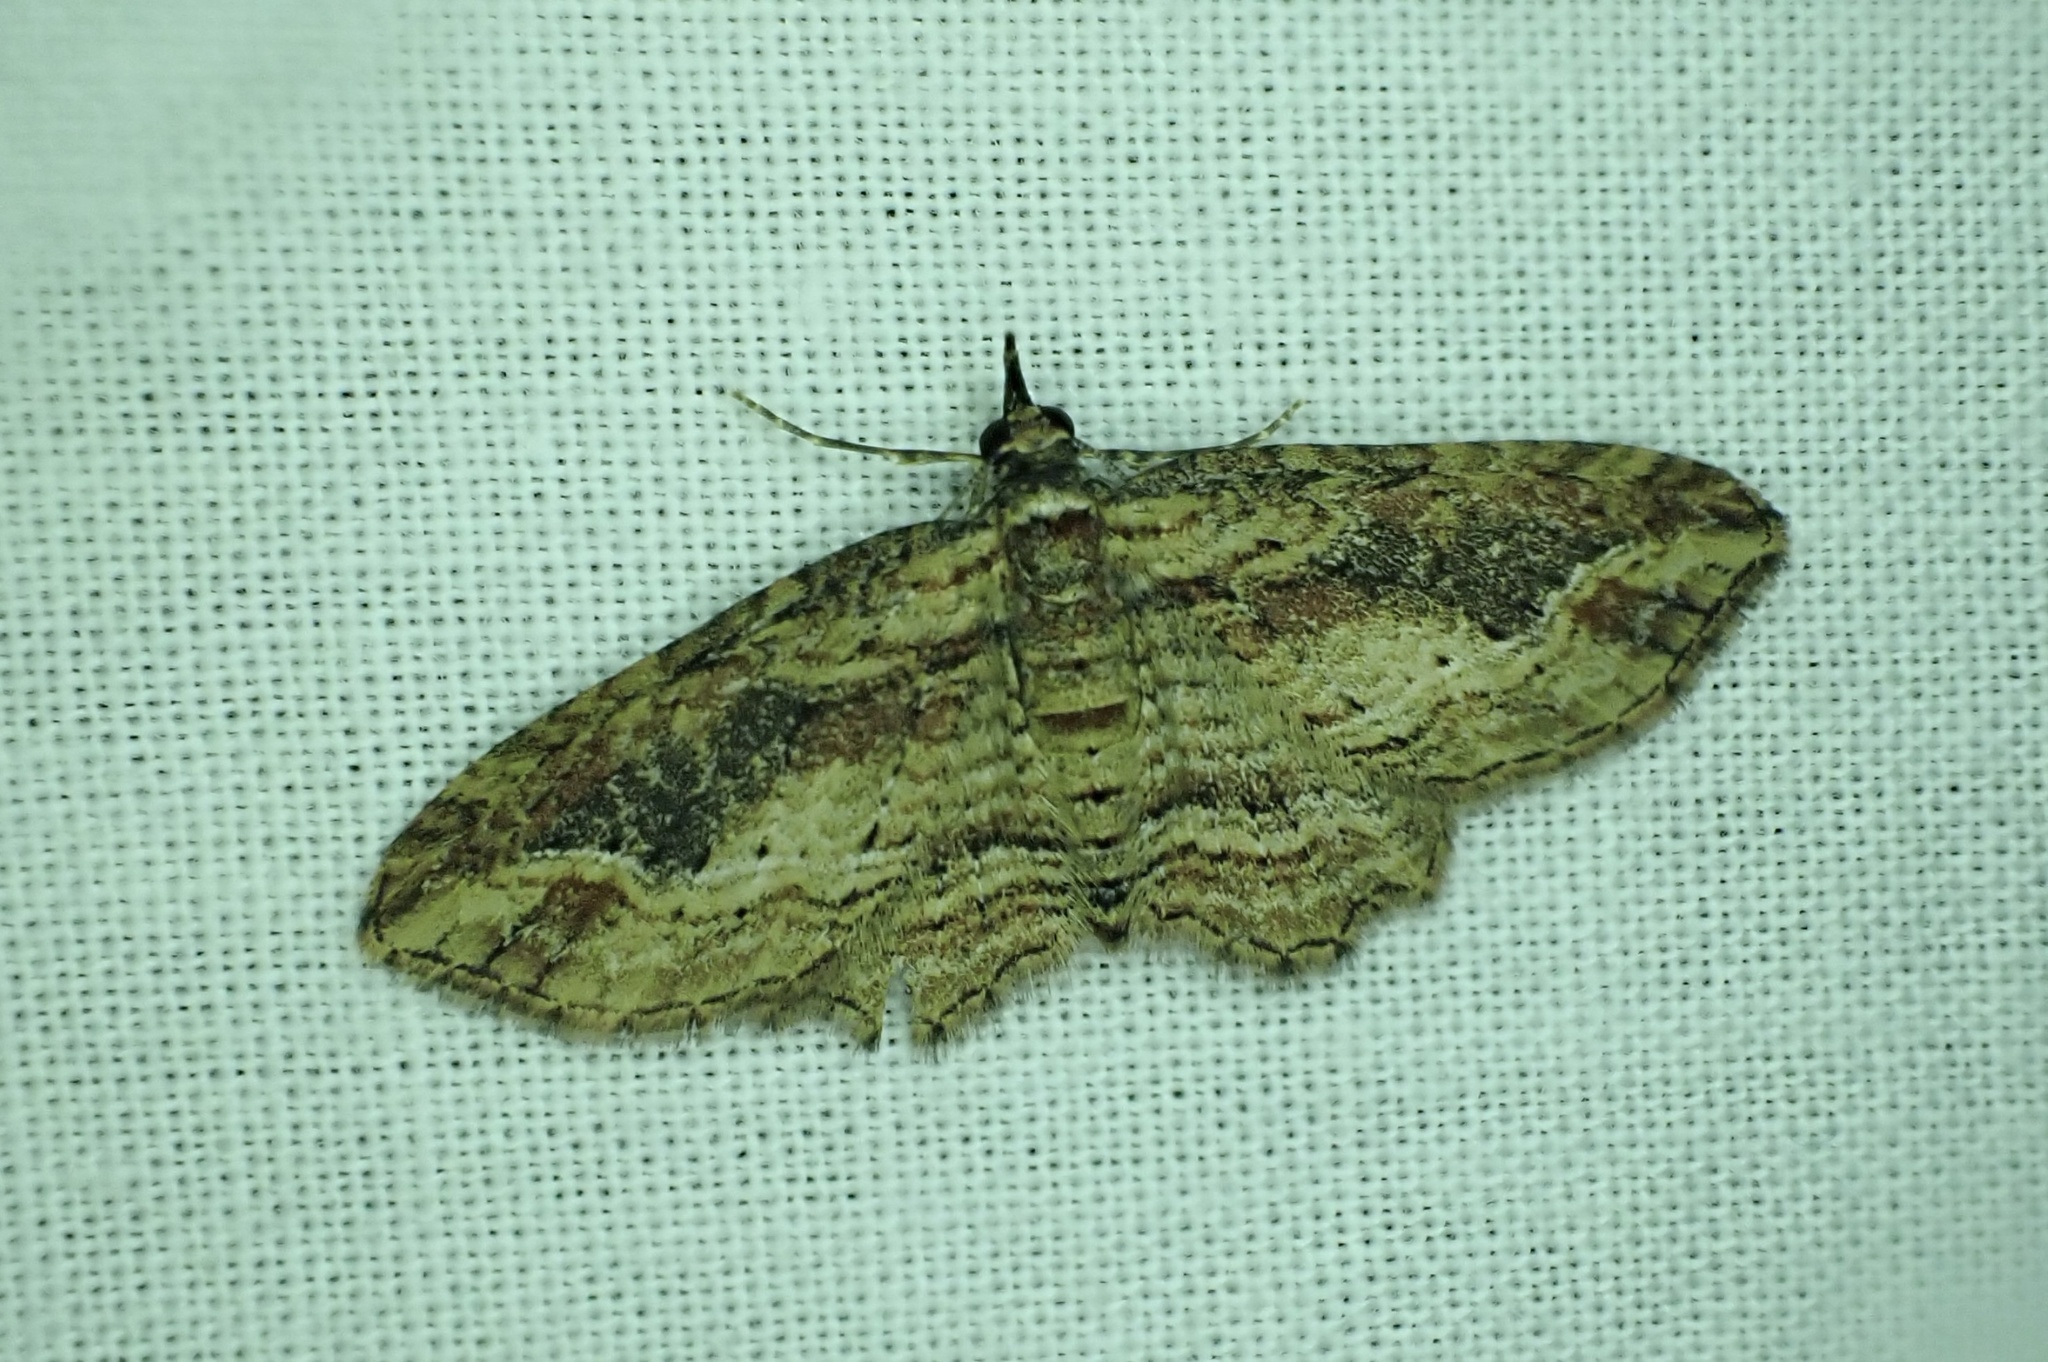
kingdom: Animalia
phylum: Arthropoda
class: Insecta
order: Lepidoptera
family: Geometridae
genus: Chloroclystis
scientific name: Chloroclystis filata
